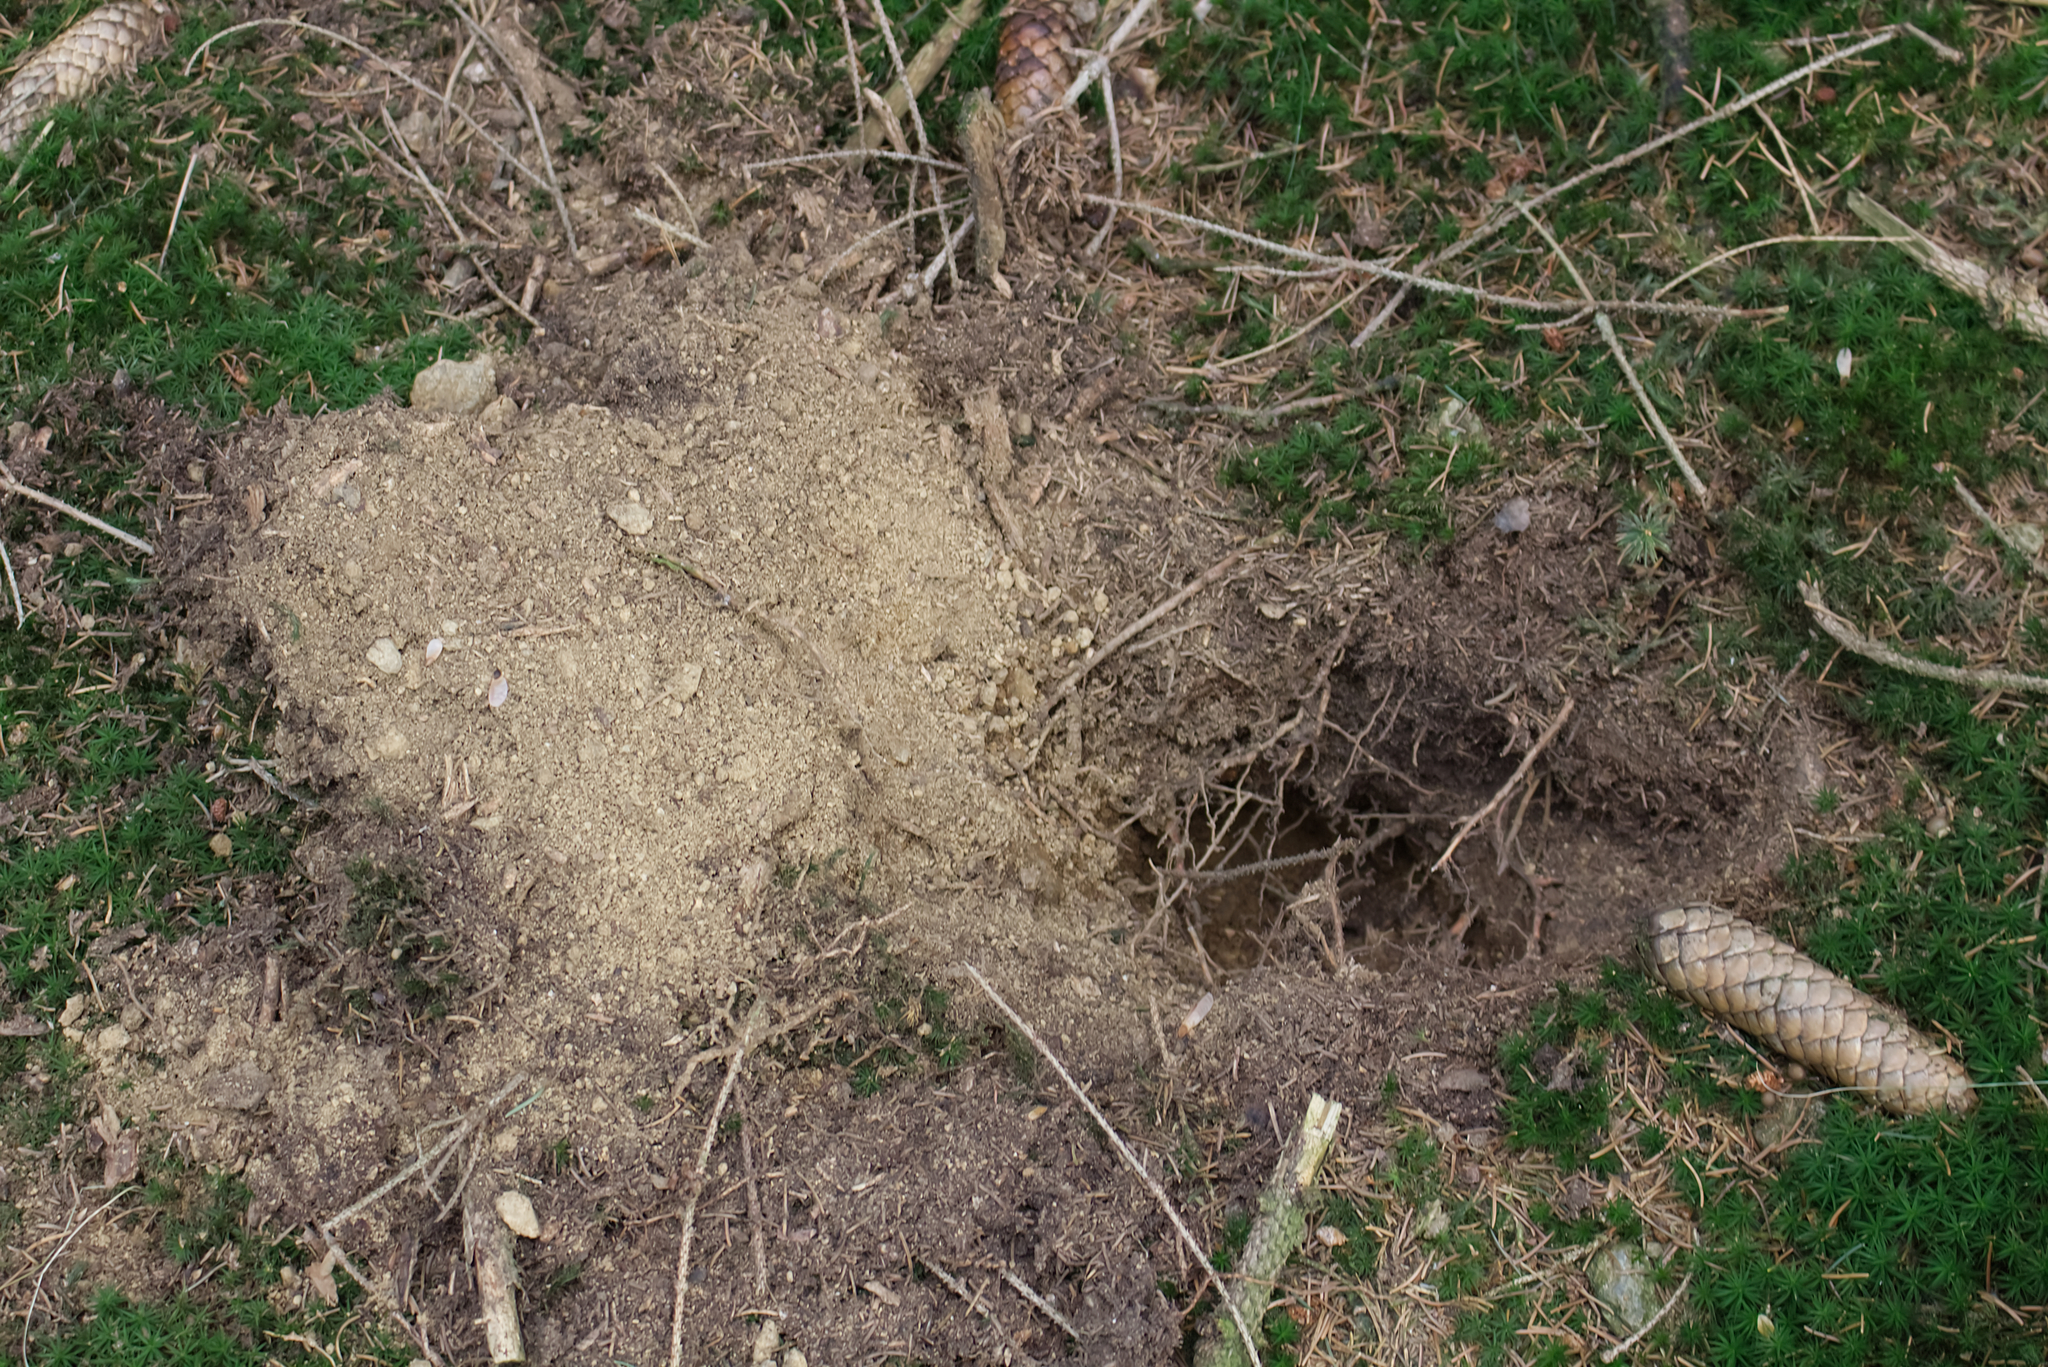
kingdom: Animalia
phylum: Chordata
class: Mammalia
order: Carnivora
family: Mustelidae
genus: Meles
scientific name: Meles meles
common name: Eurasian badger
